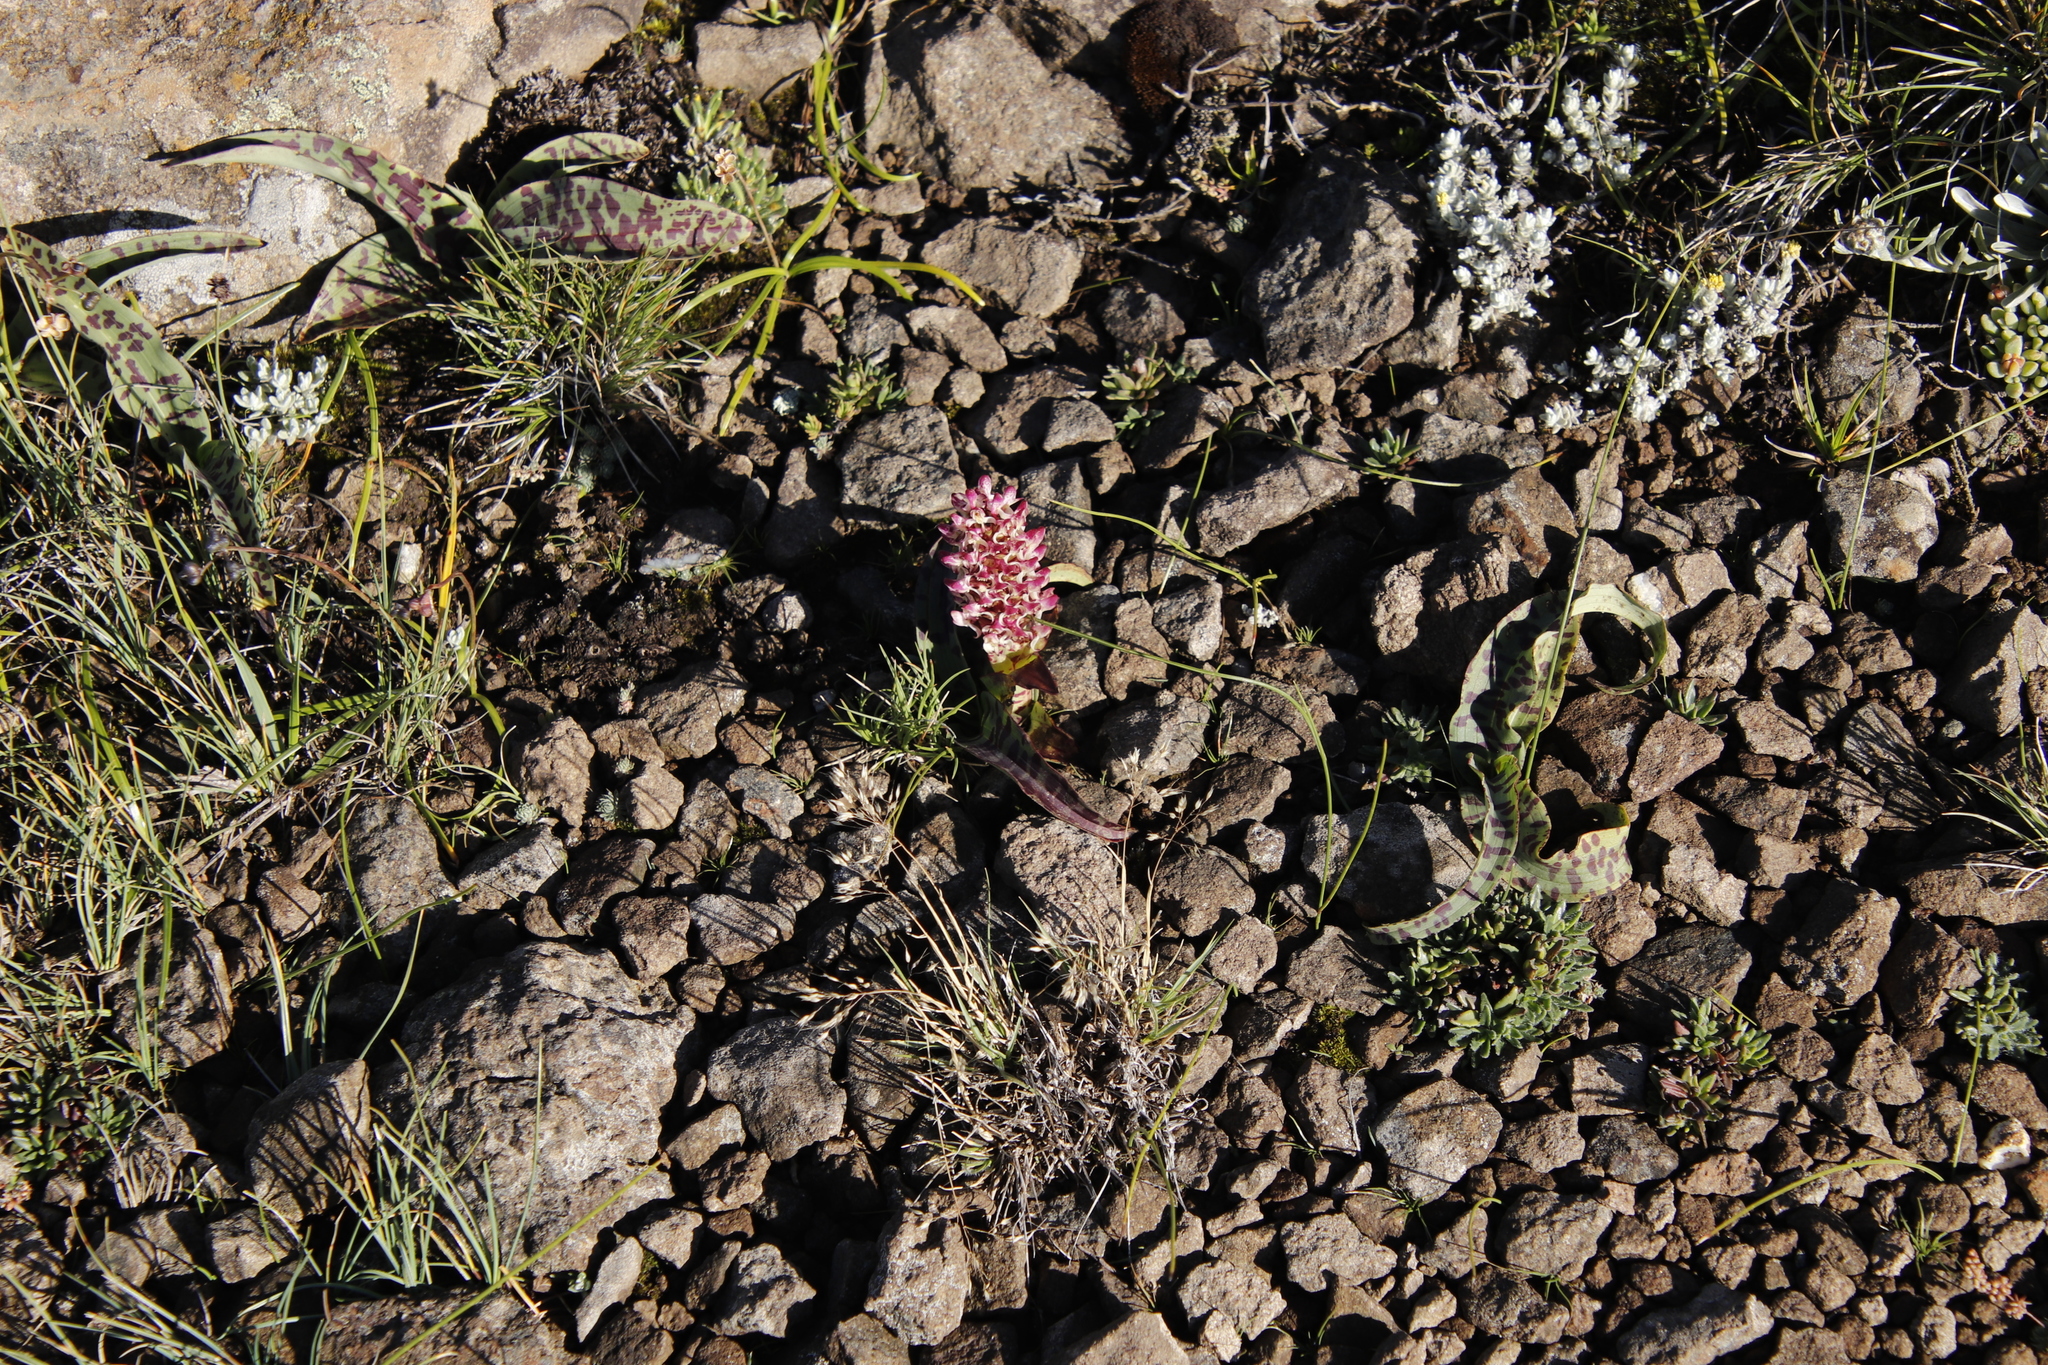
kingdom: Plantae
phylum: Tracheophyta
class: Liliopsida
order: Asparagales
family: Orchidaceae
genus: Disa
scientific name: Disa fragrans
